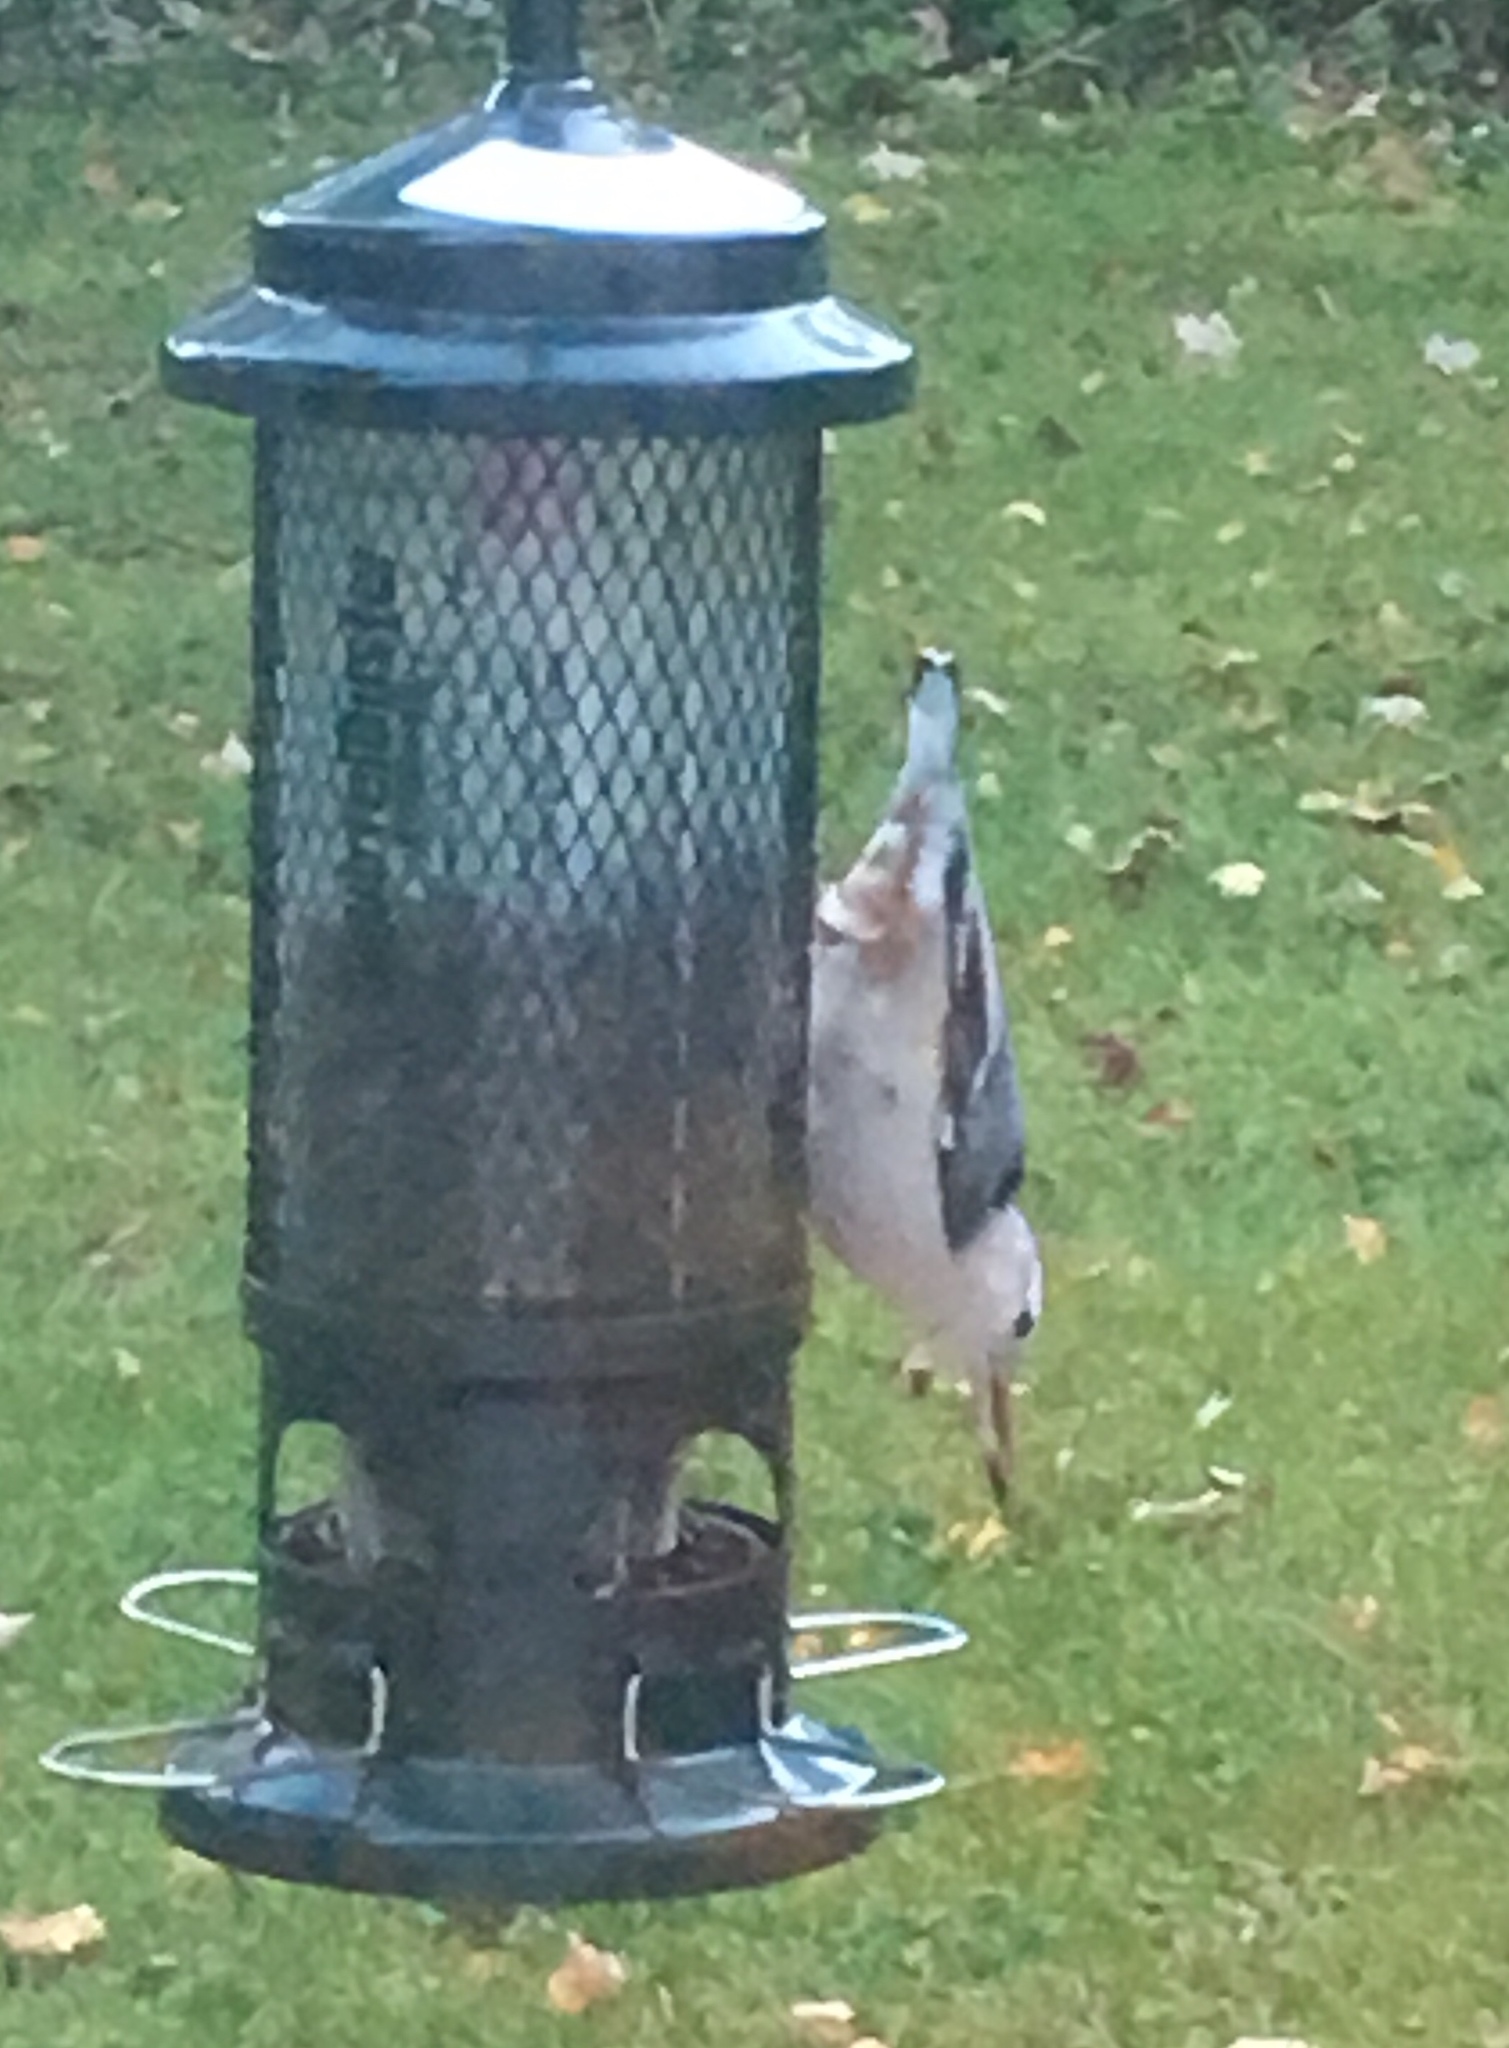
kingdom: Animalia
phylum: Chordata
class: Aves
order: Passeriformes
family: Sittidae
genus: Sitta
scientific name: Sitta carolinensis
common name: White-breasted nuthatch
